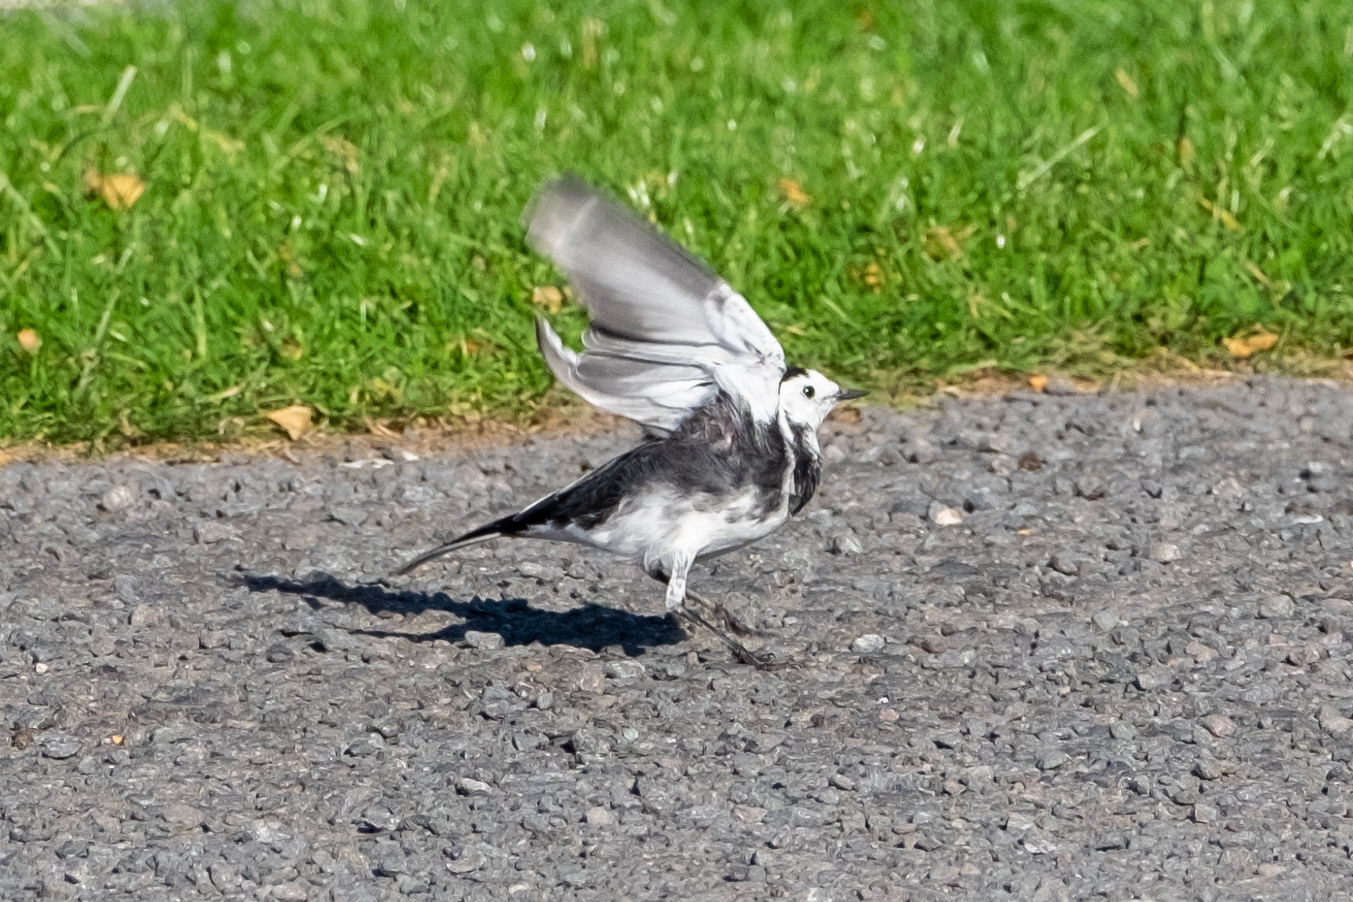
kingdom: Animalia
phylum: Chordata
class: Aves
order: Passeriformes
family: Motacillidae
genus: Motacilla
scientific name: Motacilla alba
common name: White wagtail
